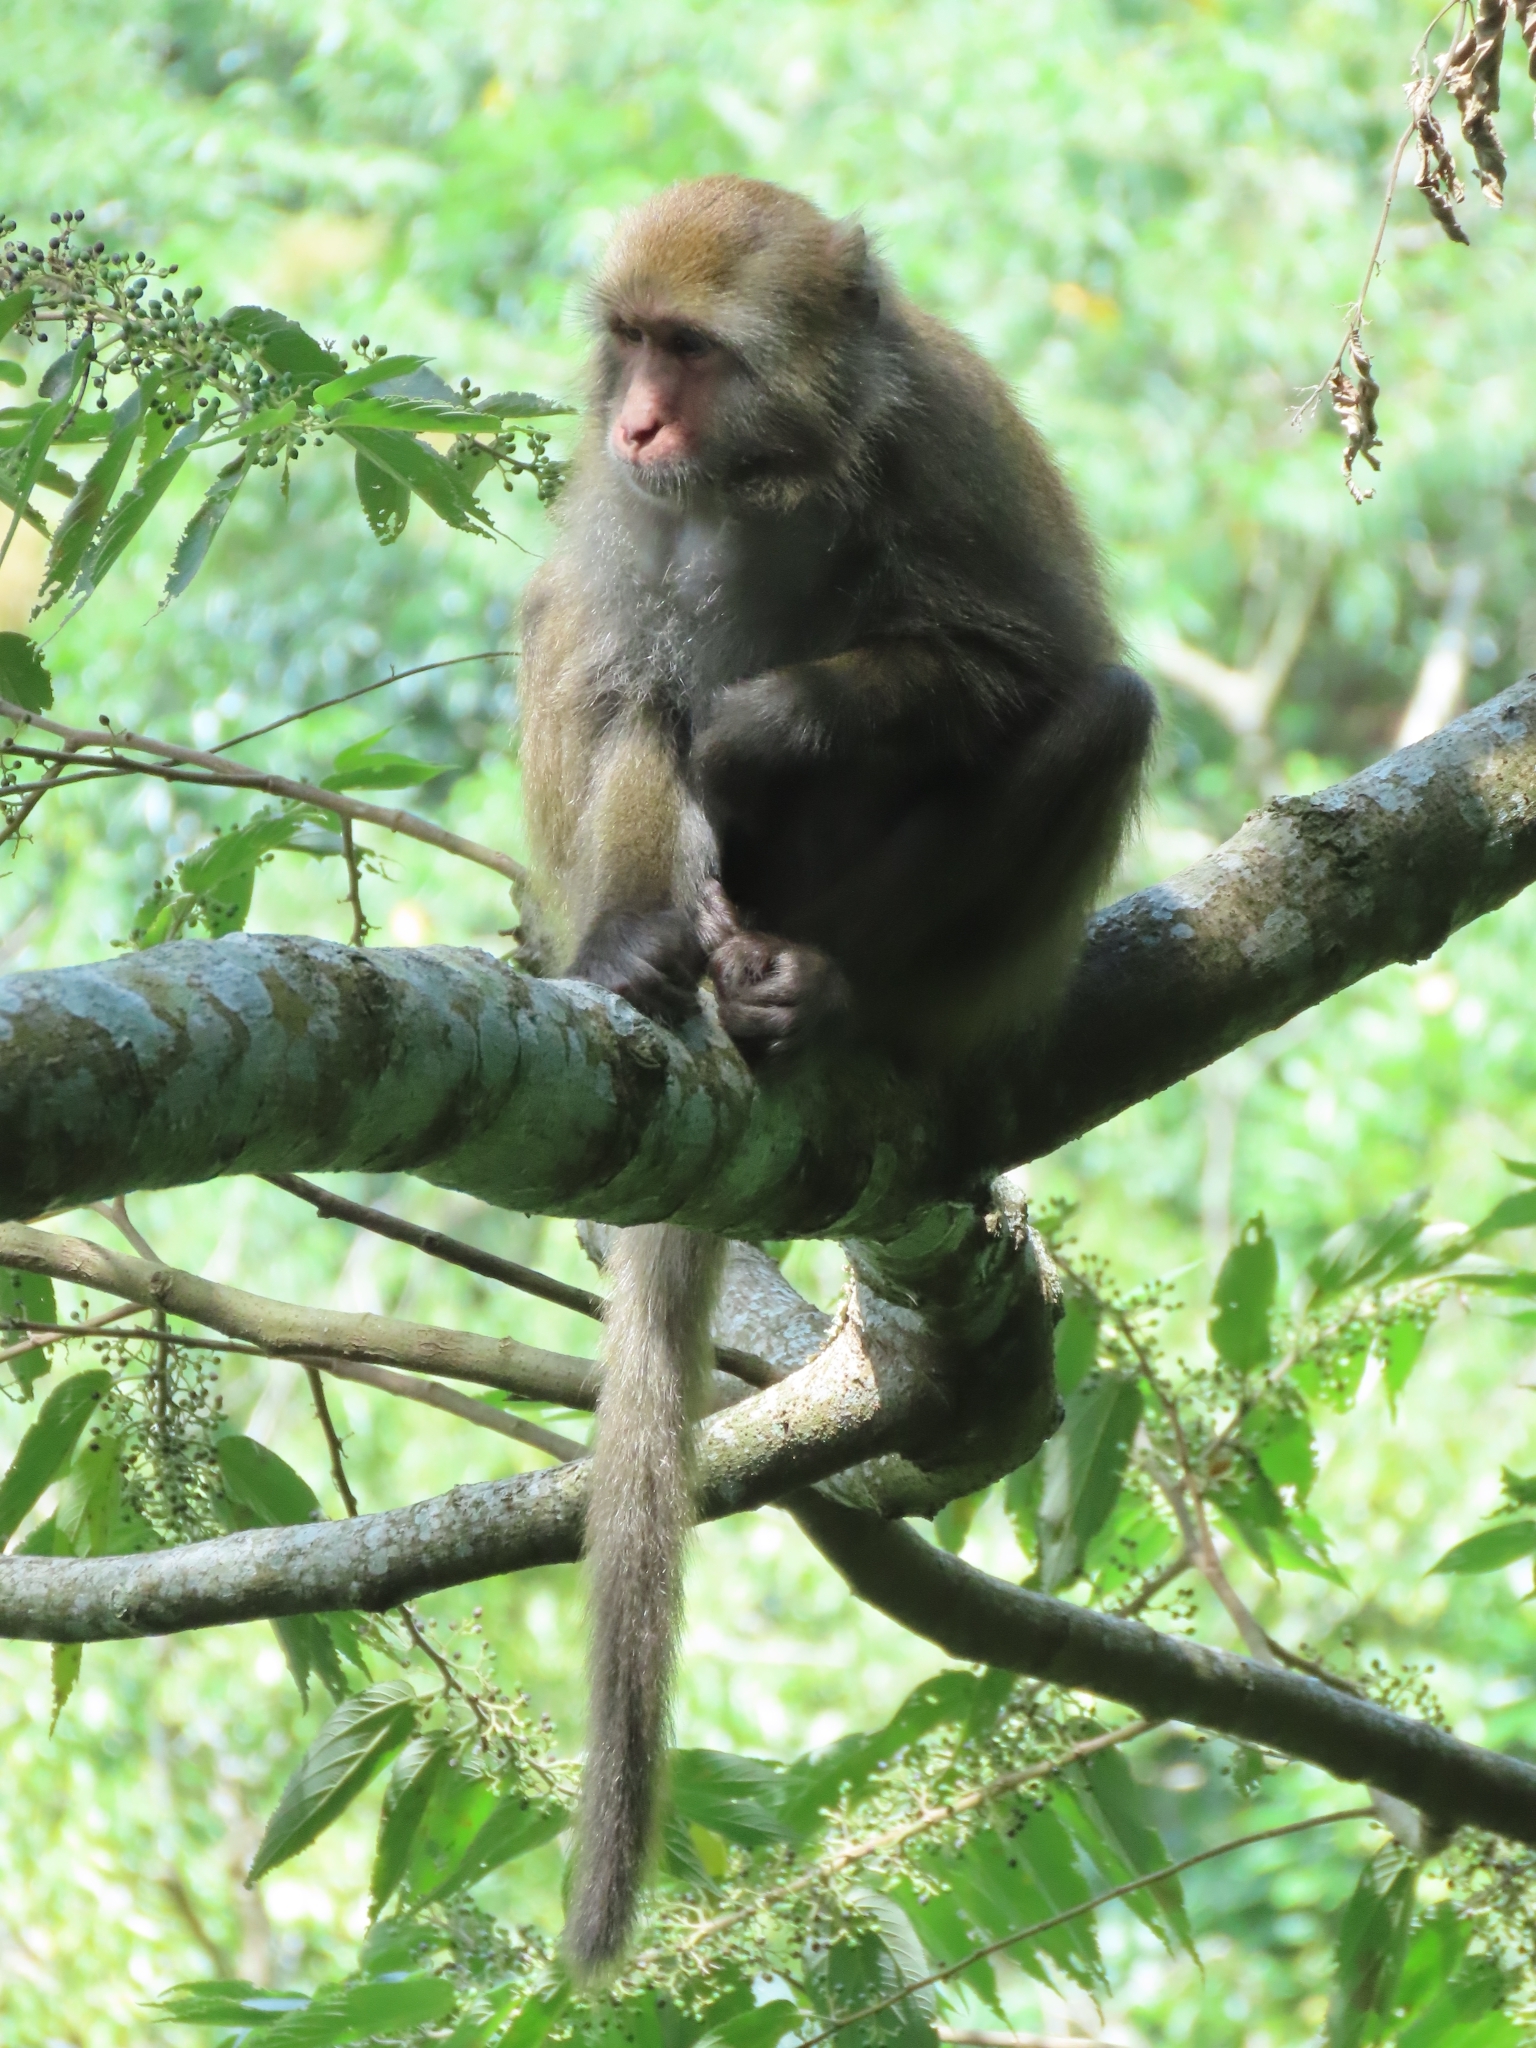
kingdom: Animalia
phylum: Chordata
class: Mammalia
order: Primates
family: Cercopithecidae
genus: Macaca
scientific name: Macaca cyclopis
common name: Formosan rock macaque
